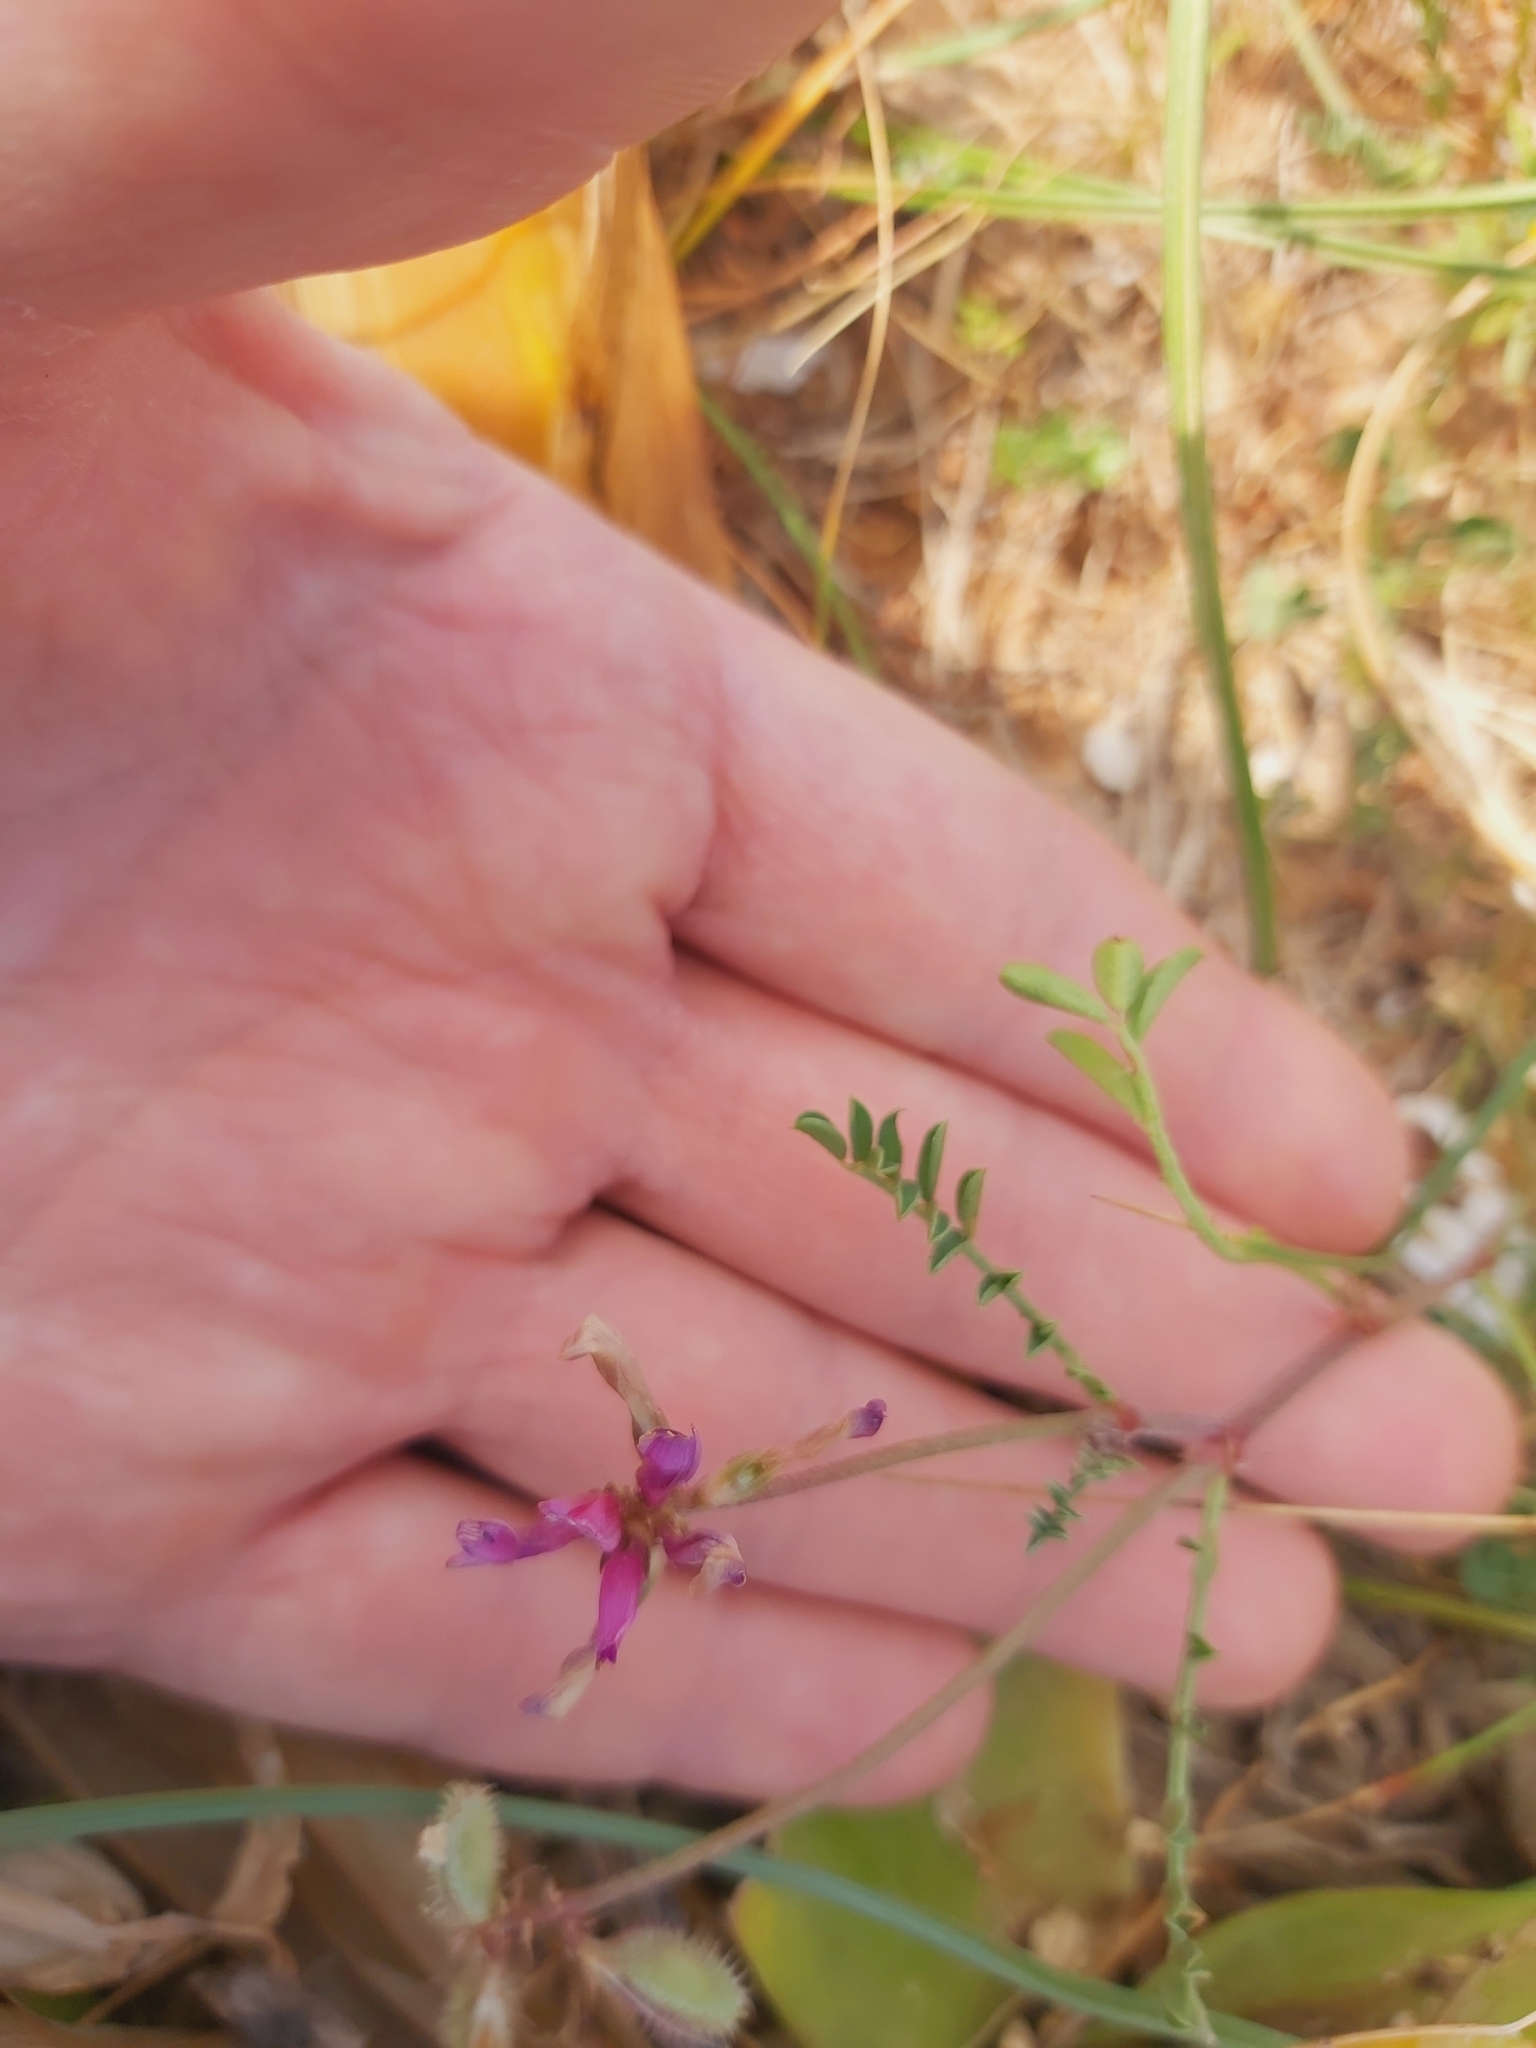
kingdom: Plantae
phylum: Tracheophyta
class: Magnoliopsida
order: Fabales
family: Fabaceae
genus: Sulla
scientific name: Sulla glomerata
